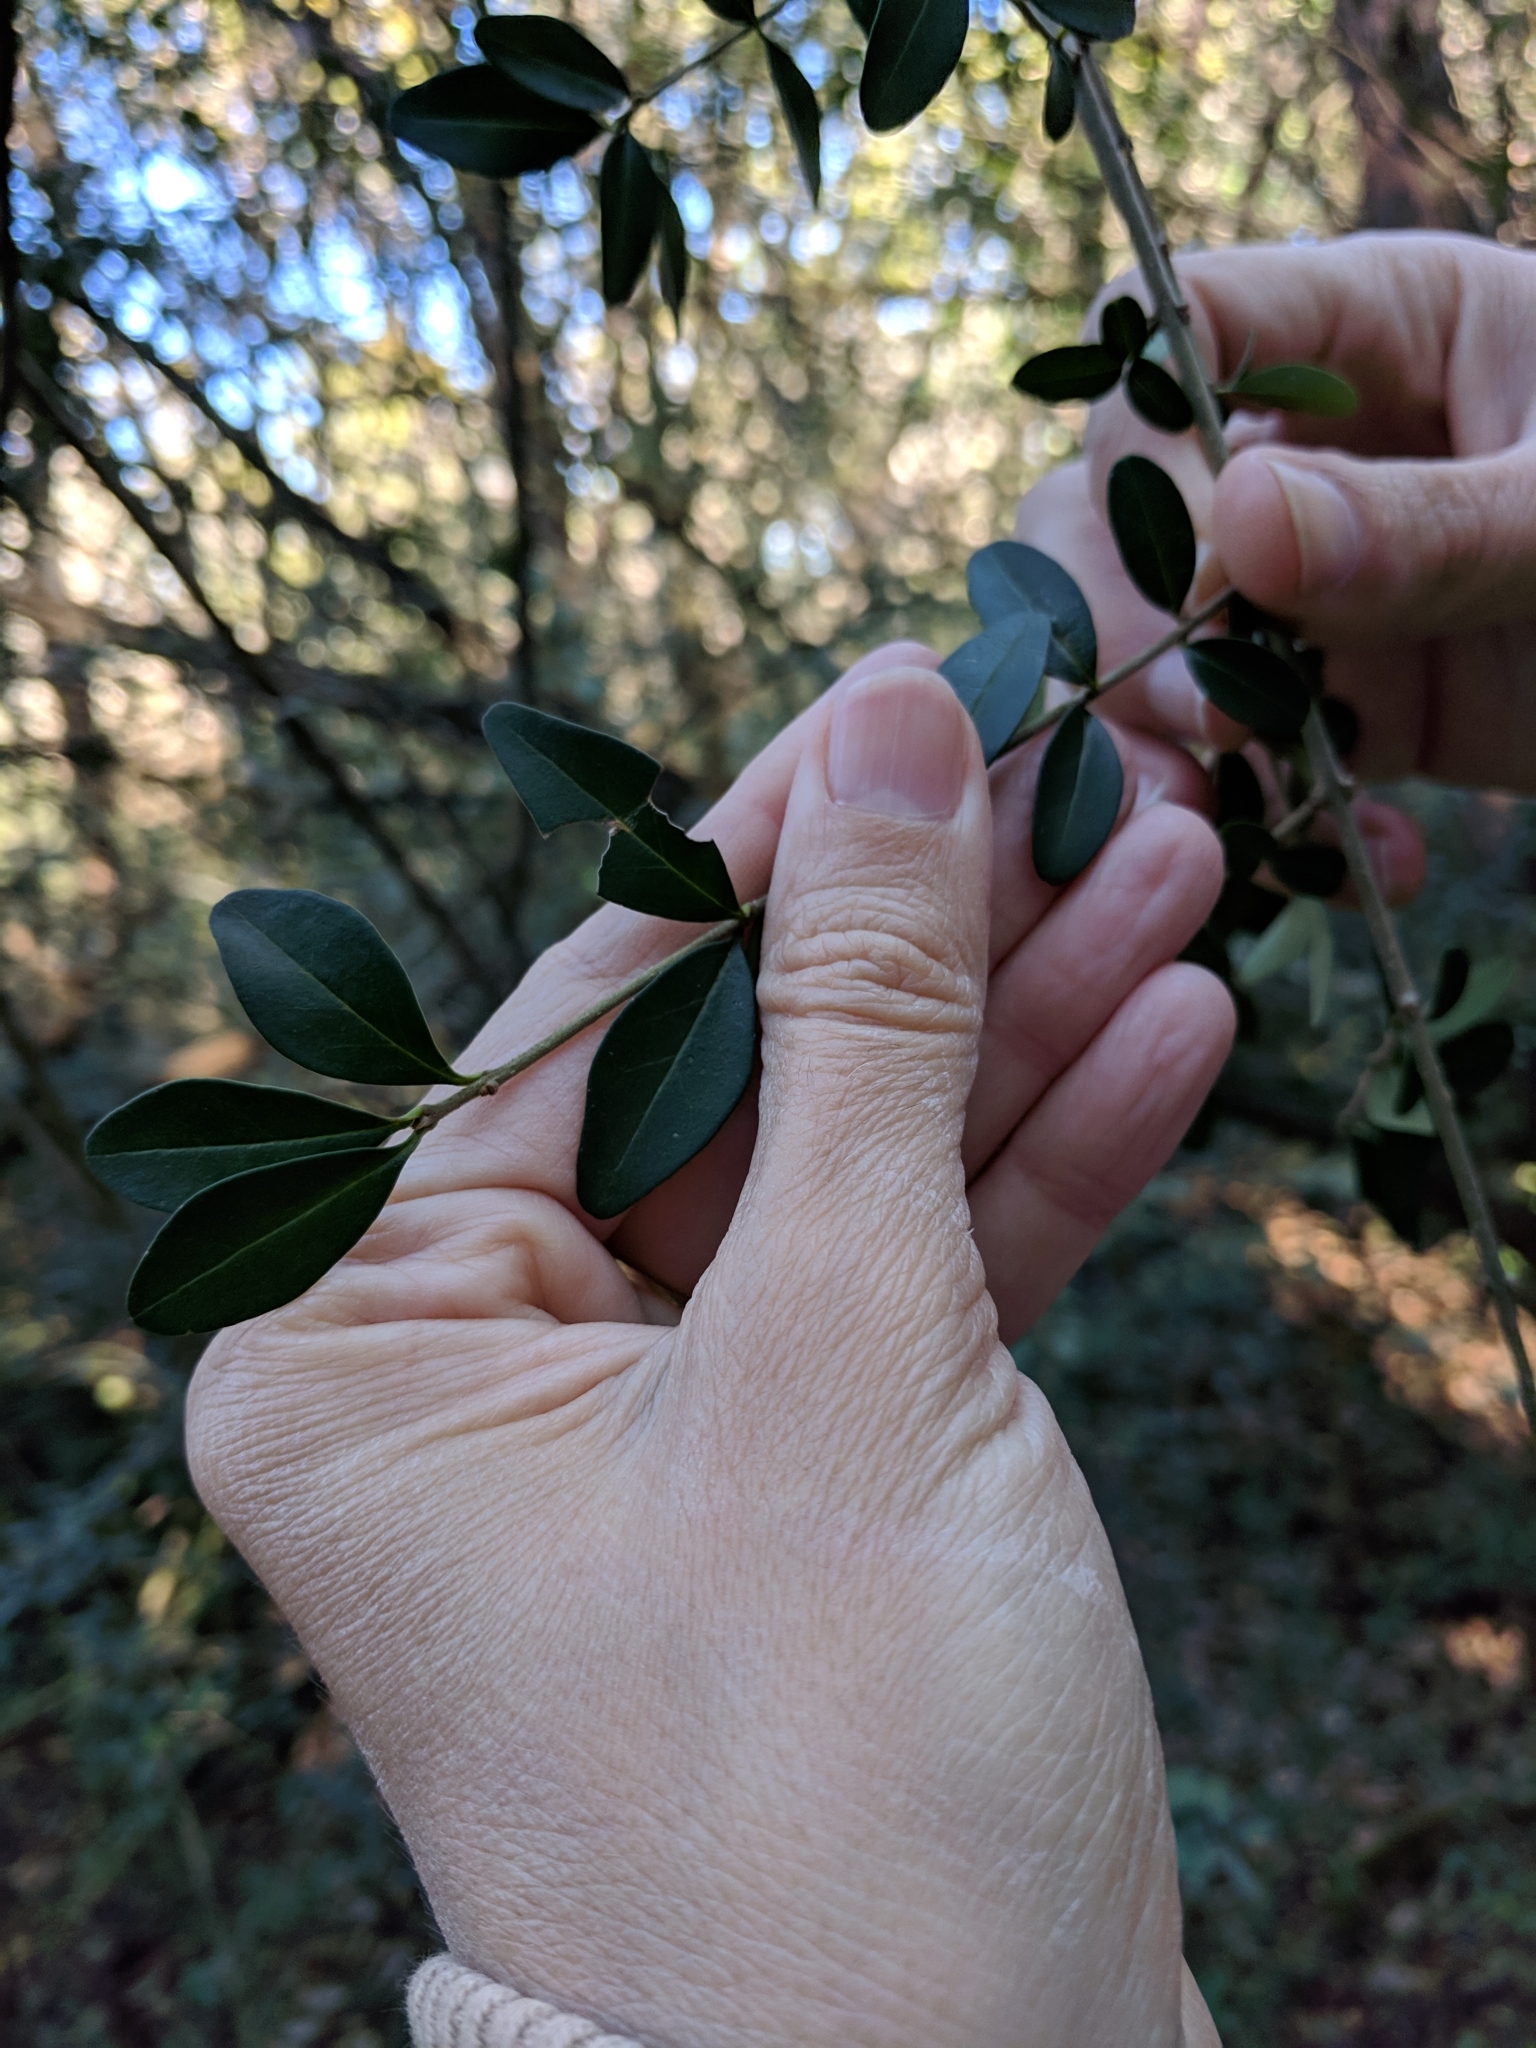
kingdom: Plantae
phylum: Tracheophyta
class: Magnoliopsida
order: Lamiales
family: Oleaceae
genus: Ligustrum
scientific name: Ligustrum quihoui
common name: Waxyleaf privet
